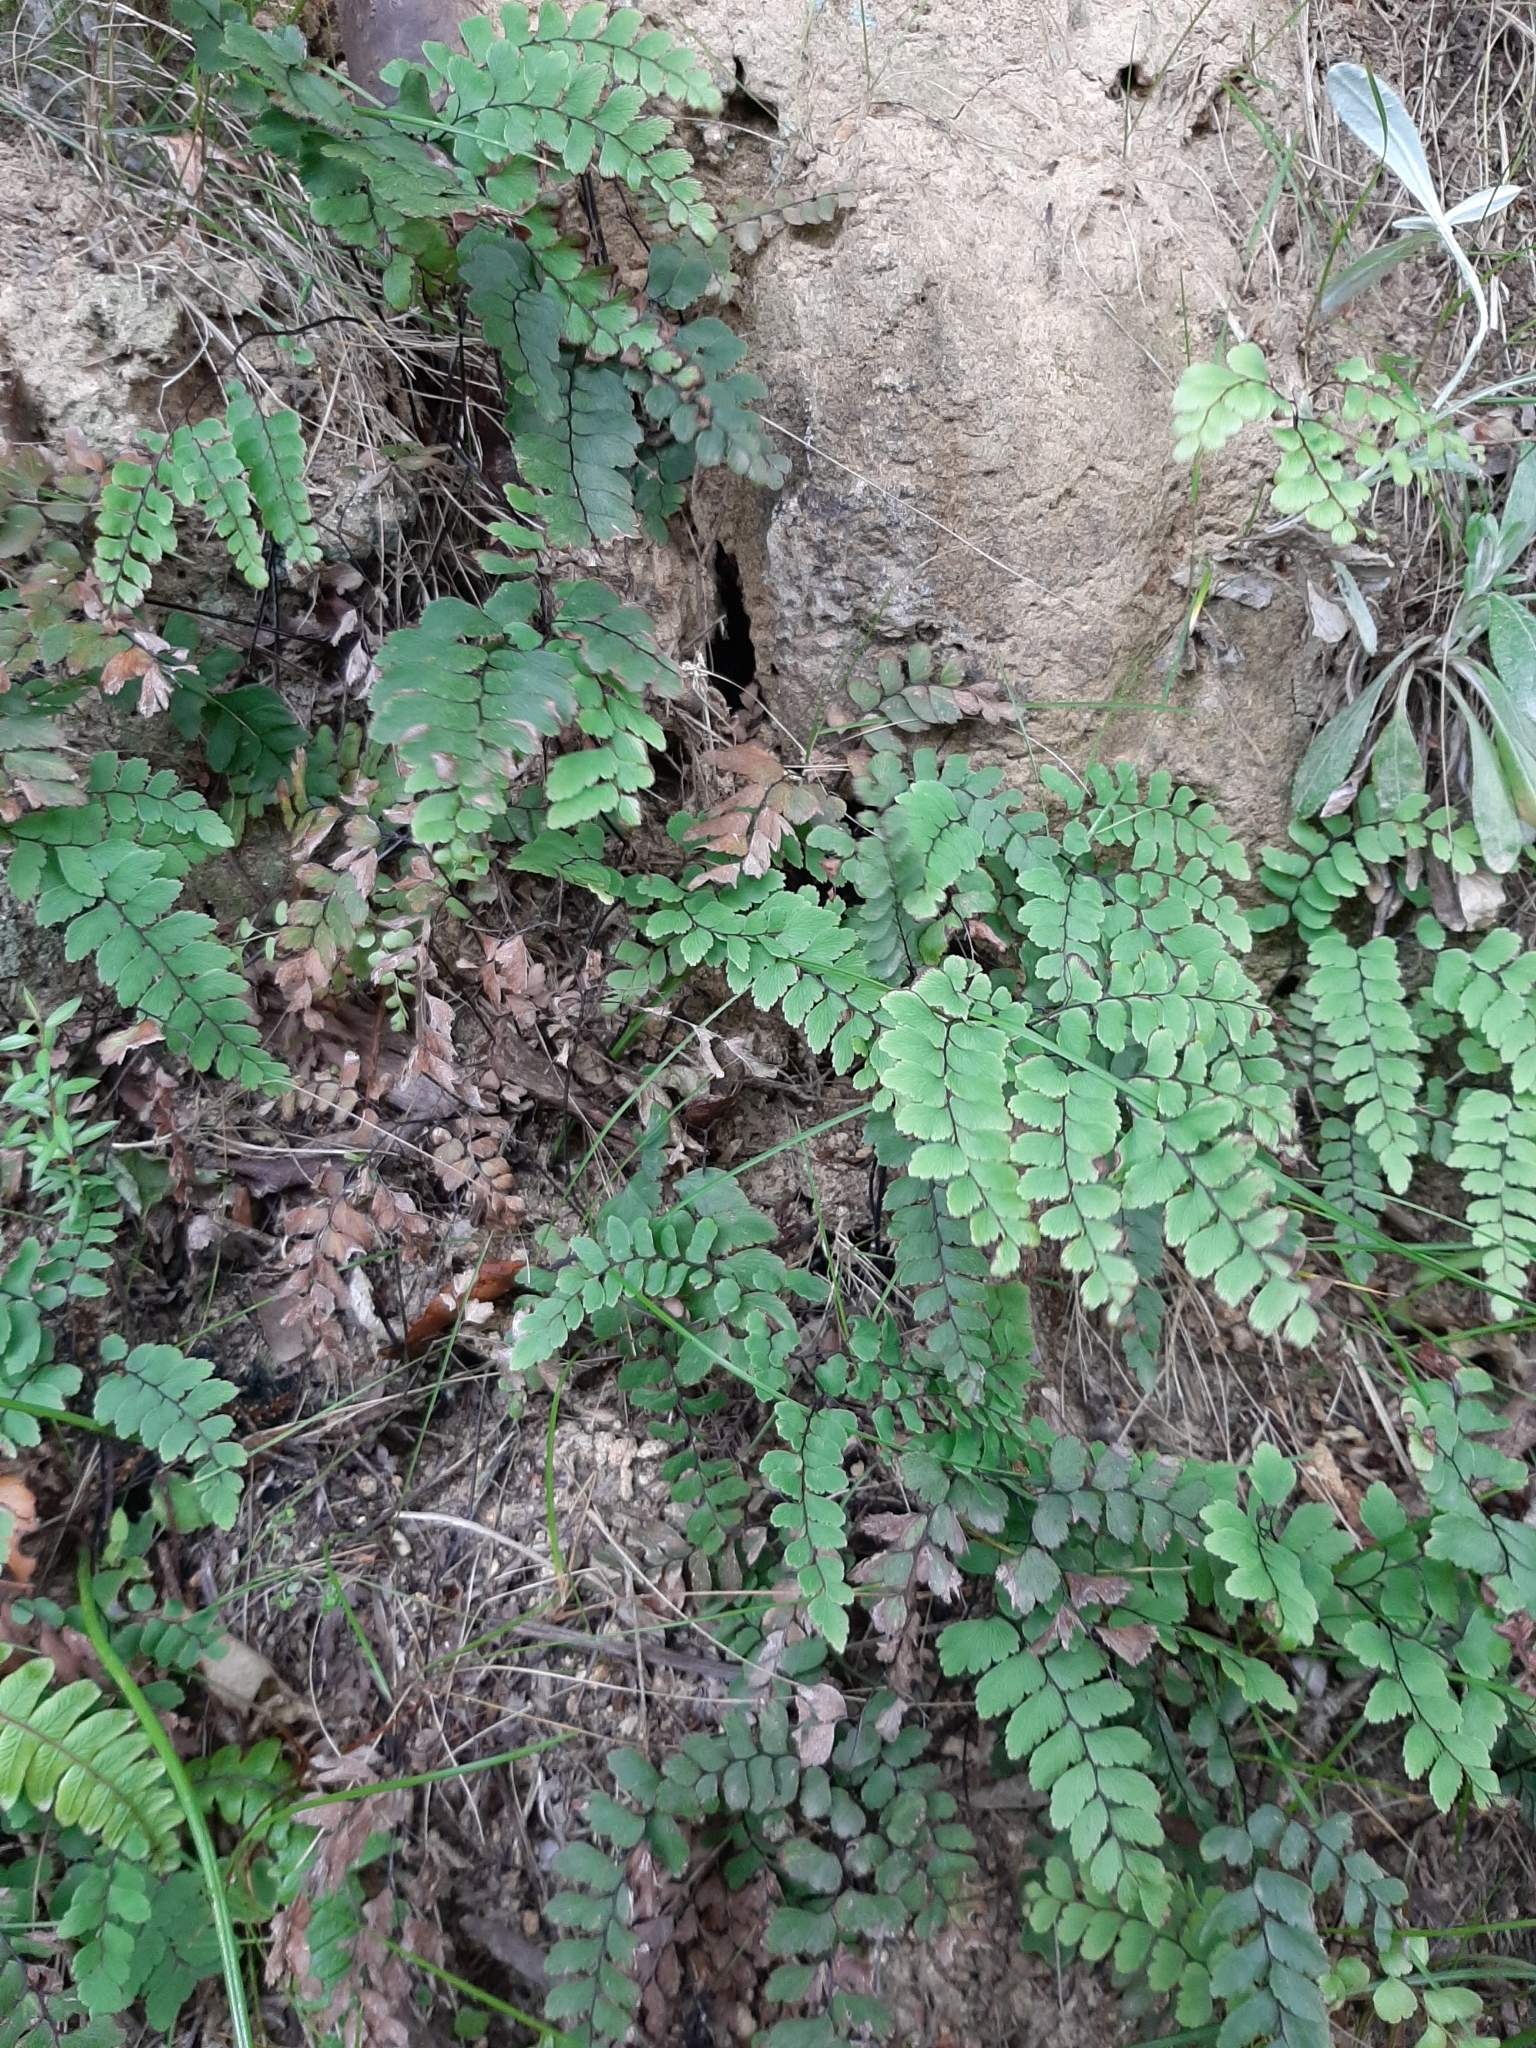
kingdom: Plantae
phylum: Tracheophyta
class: Polypodiopsida
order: Polypodiales
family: Pteridaceae
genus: Adiantum
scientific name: Adiantum cunninghamii
